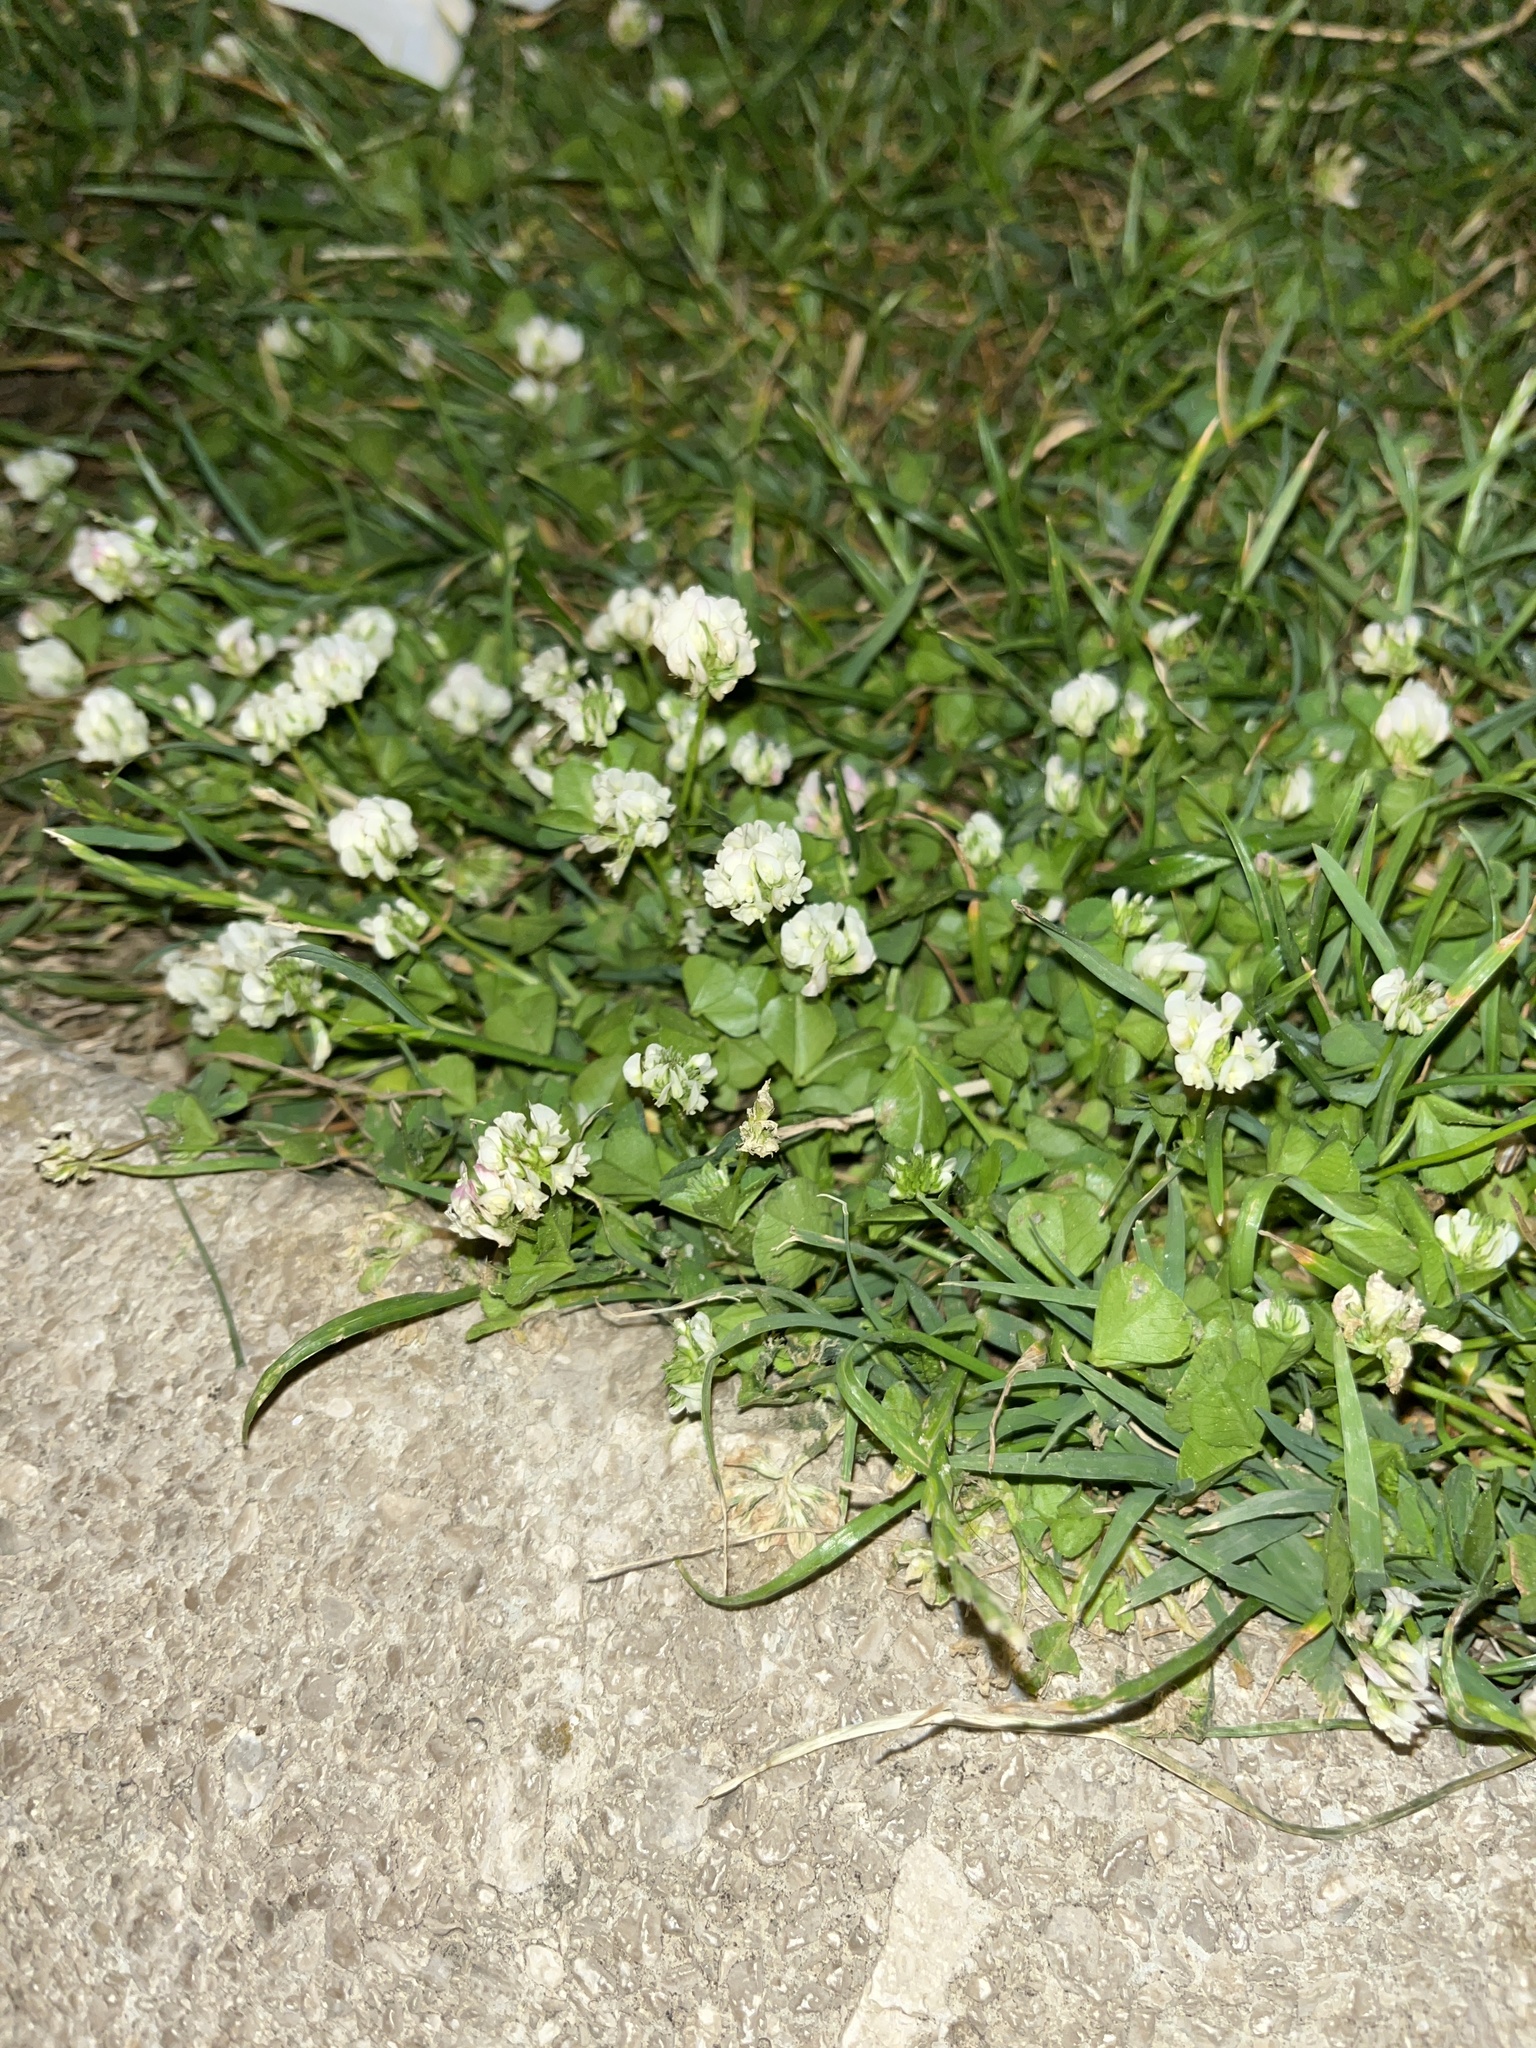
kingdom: Plantae
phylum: Tracheophyta
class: Magnoliopsida
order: Fabales
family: Fabaceae
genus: Trifolium
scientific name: Trifolium repens
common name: White clover
